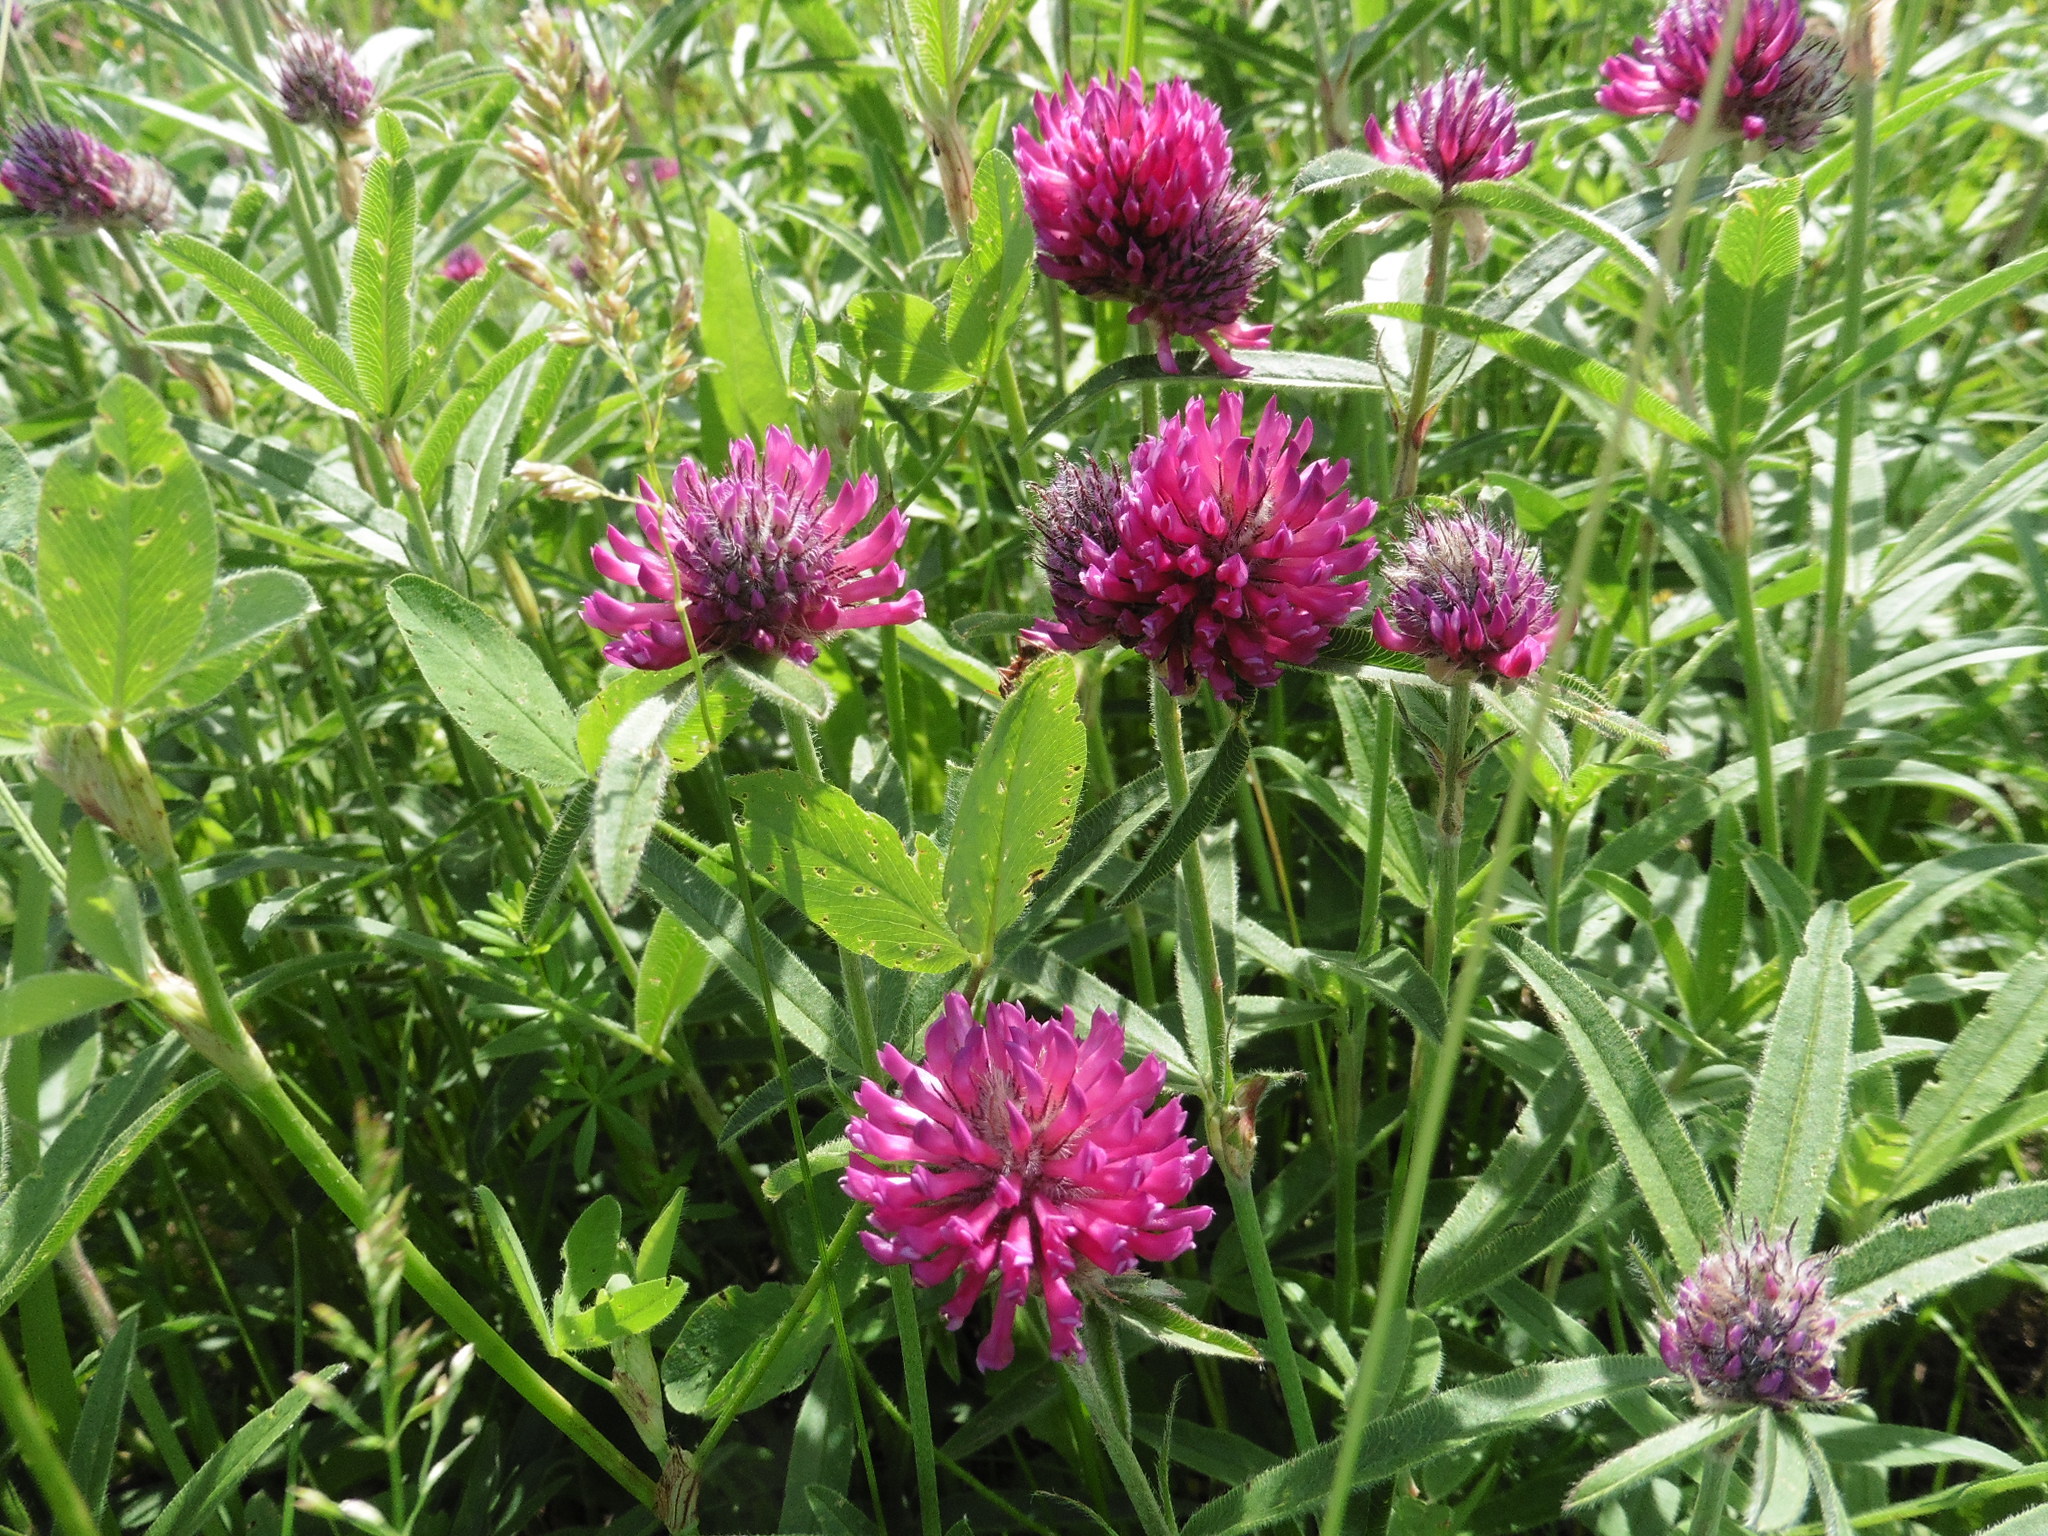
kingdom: Plantae
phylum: Tracheophyta
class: Magnoliopsida
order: Fabales
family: Fabaceae
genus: Trifolium
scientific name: Trifolium alpestre
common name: Owl-head clover
